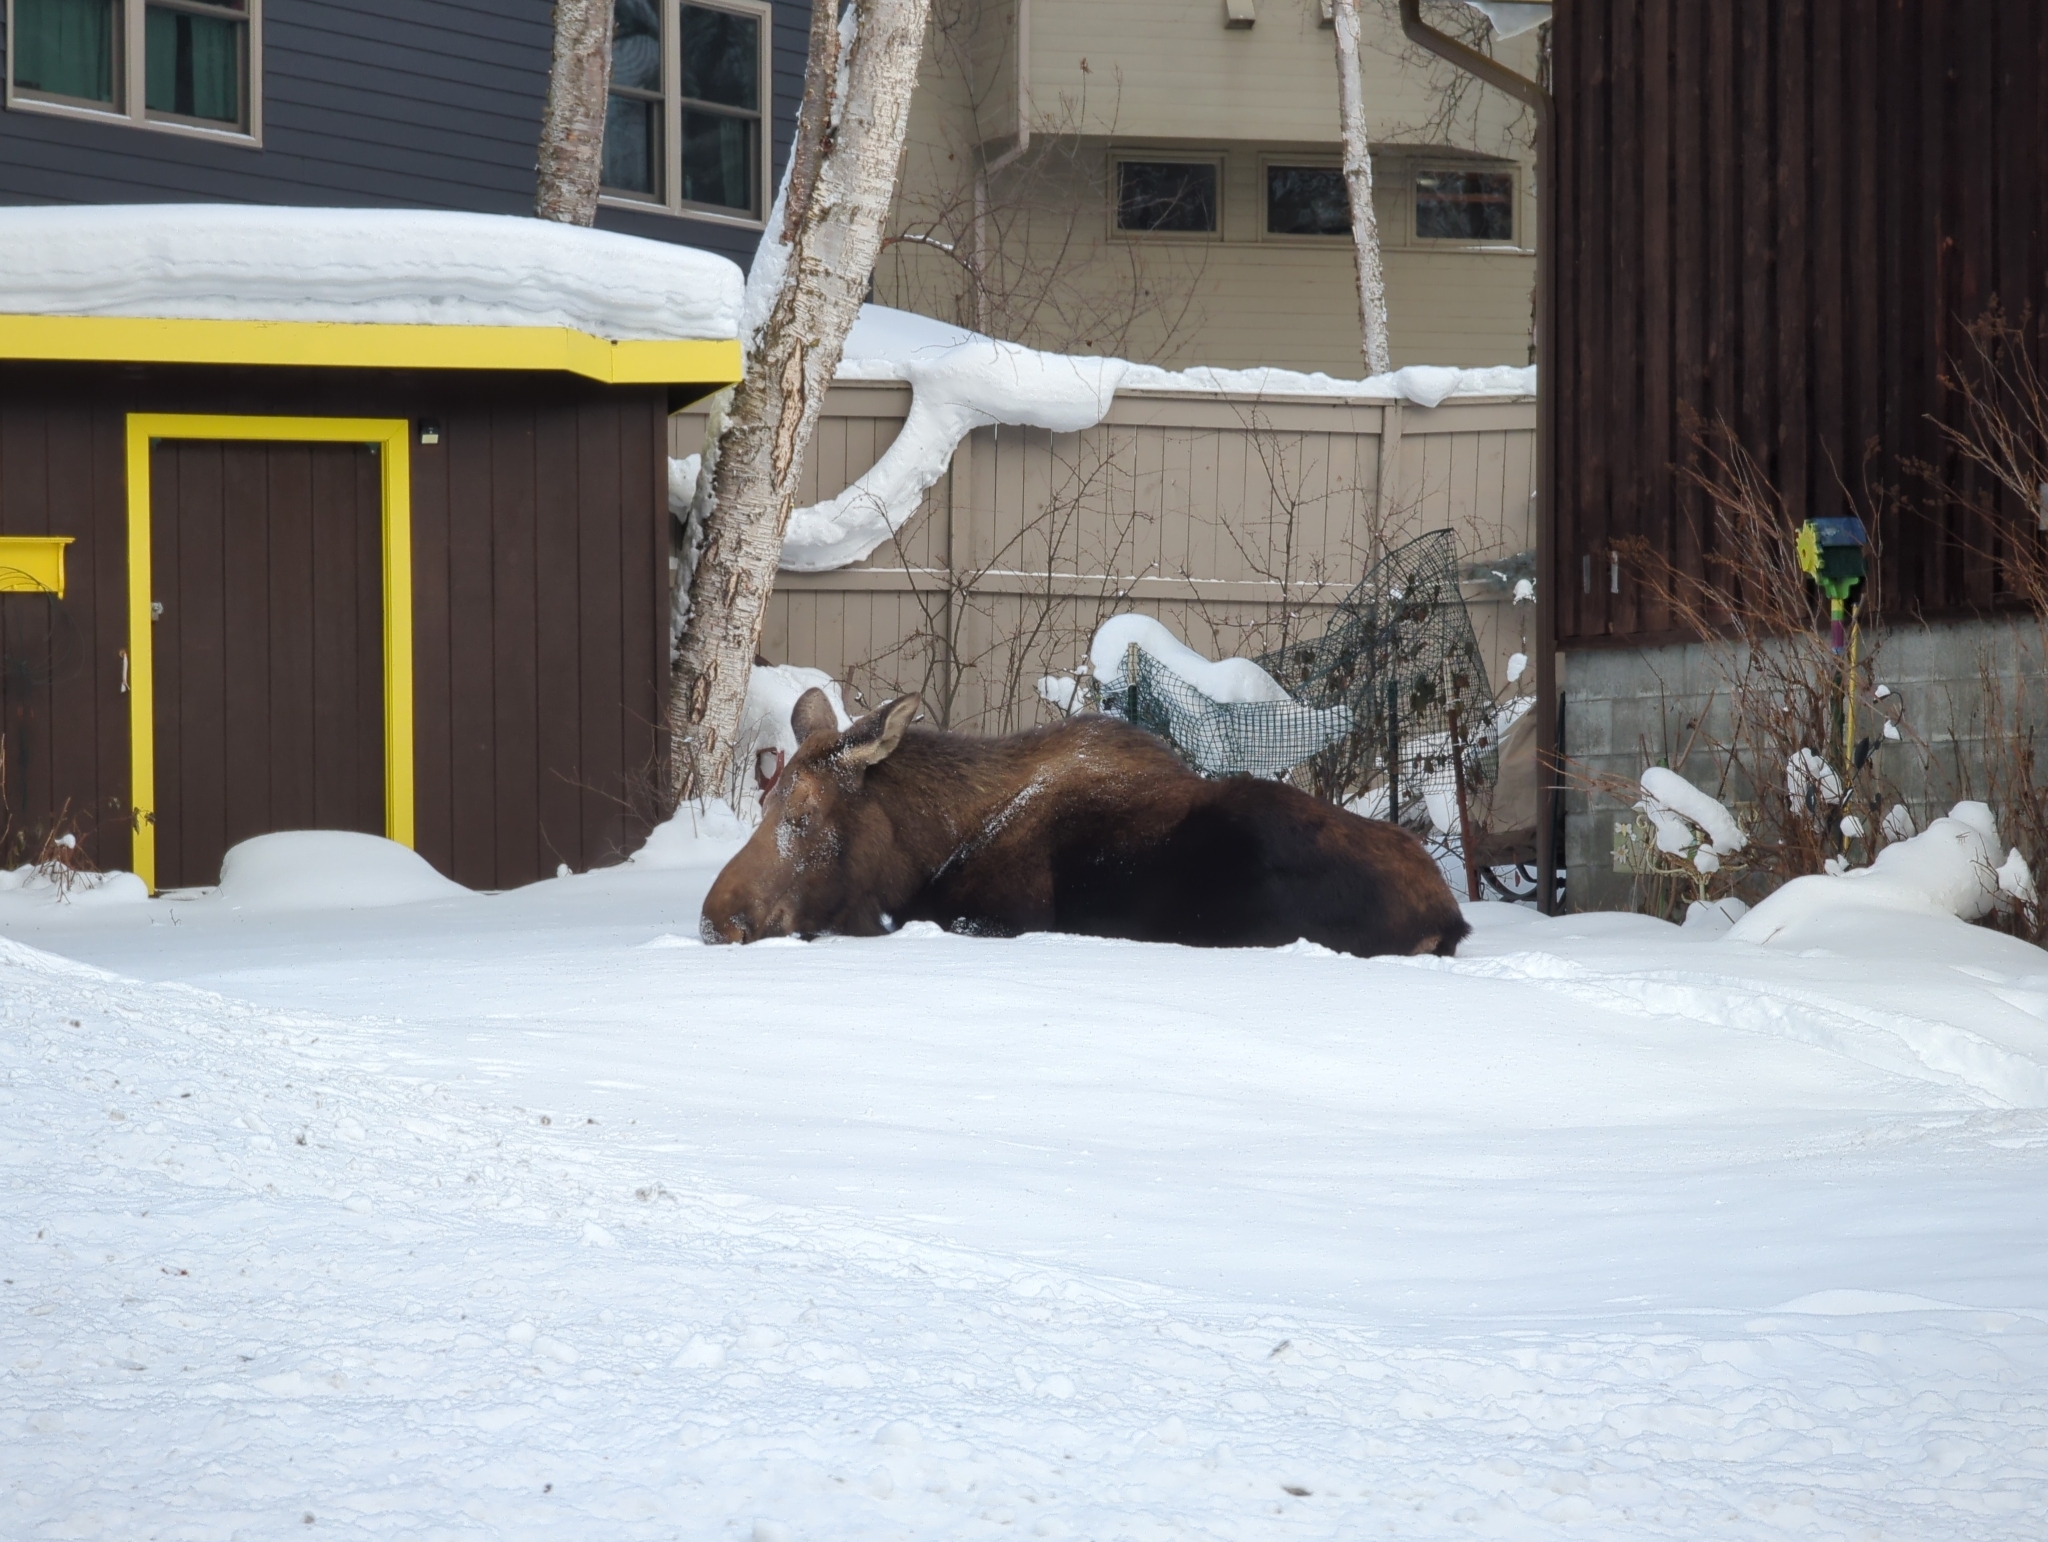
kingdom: Animalia
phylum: Chordata
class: Mammalia
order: Artiodactyla
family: Cervidae
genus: Alces
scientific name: Alces alces
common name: Moose
